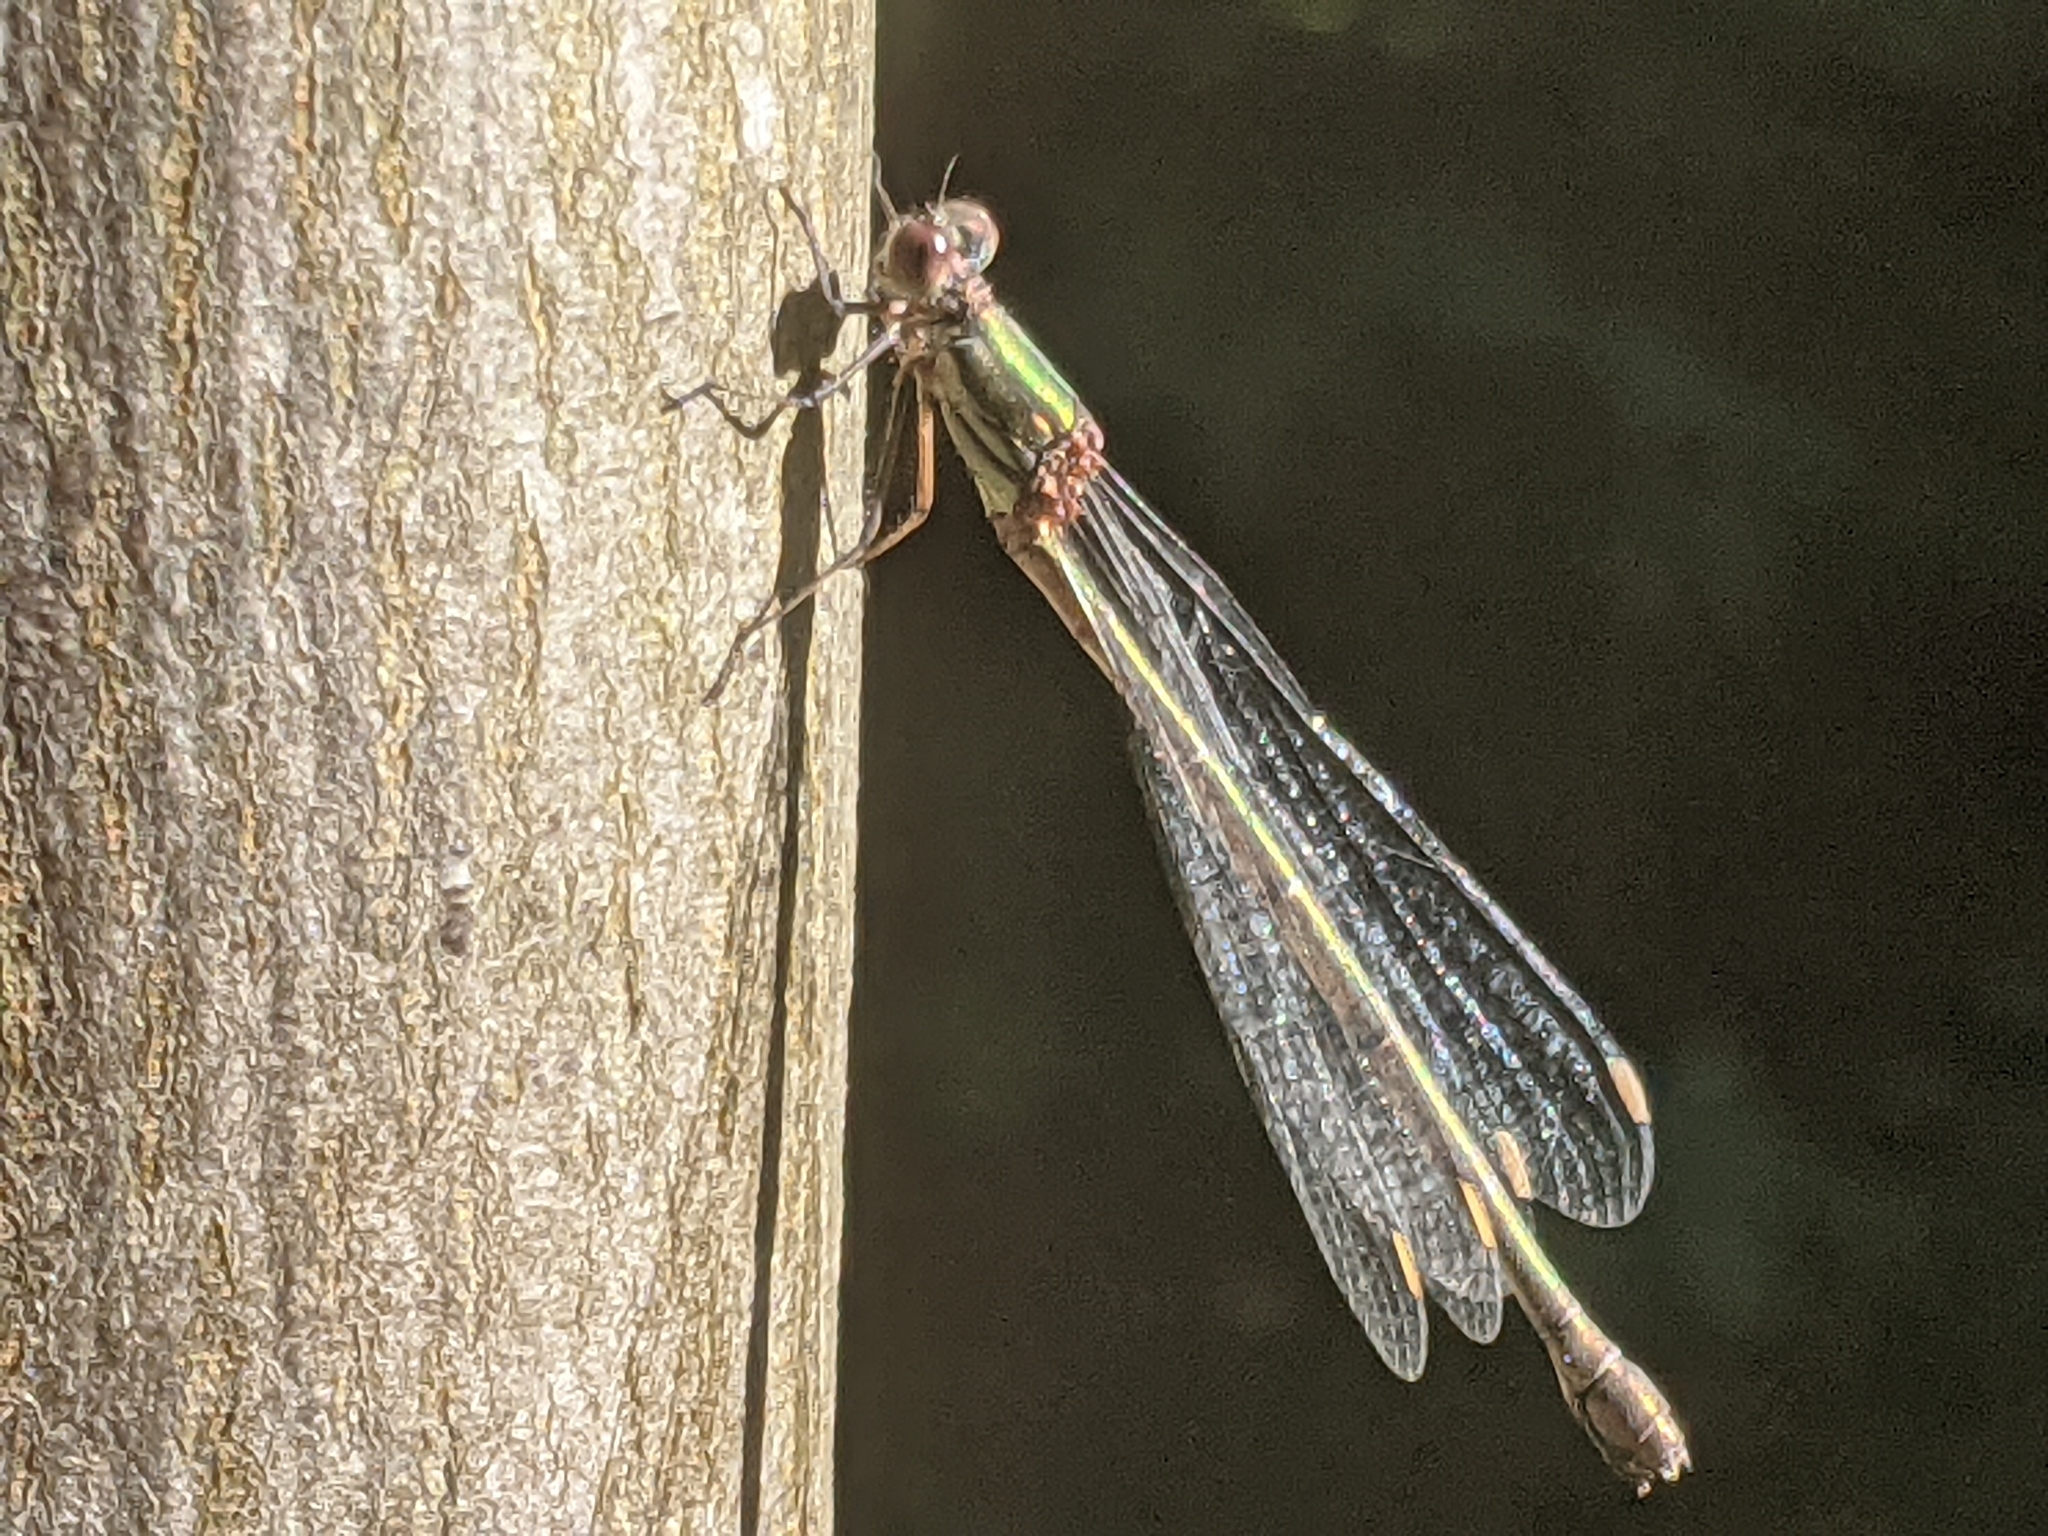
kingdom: Animalia
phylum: Arthropoda
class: Insecta
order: Odonata
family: Lestidae
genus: Chalcolestes
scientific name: Chalcolestes viridis
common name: Green emerald damselfly
